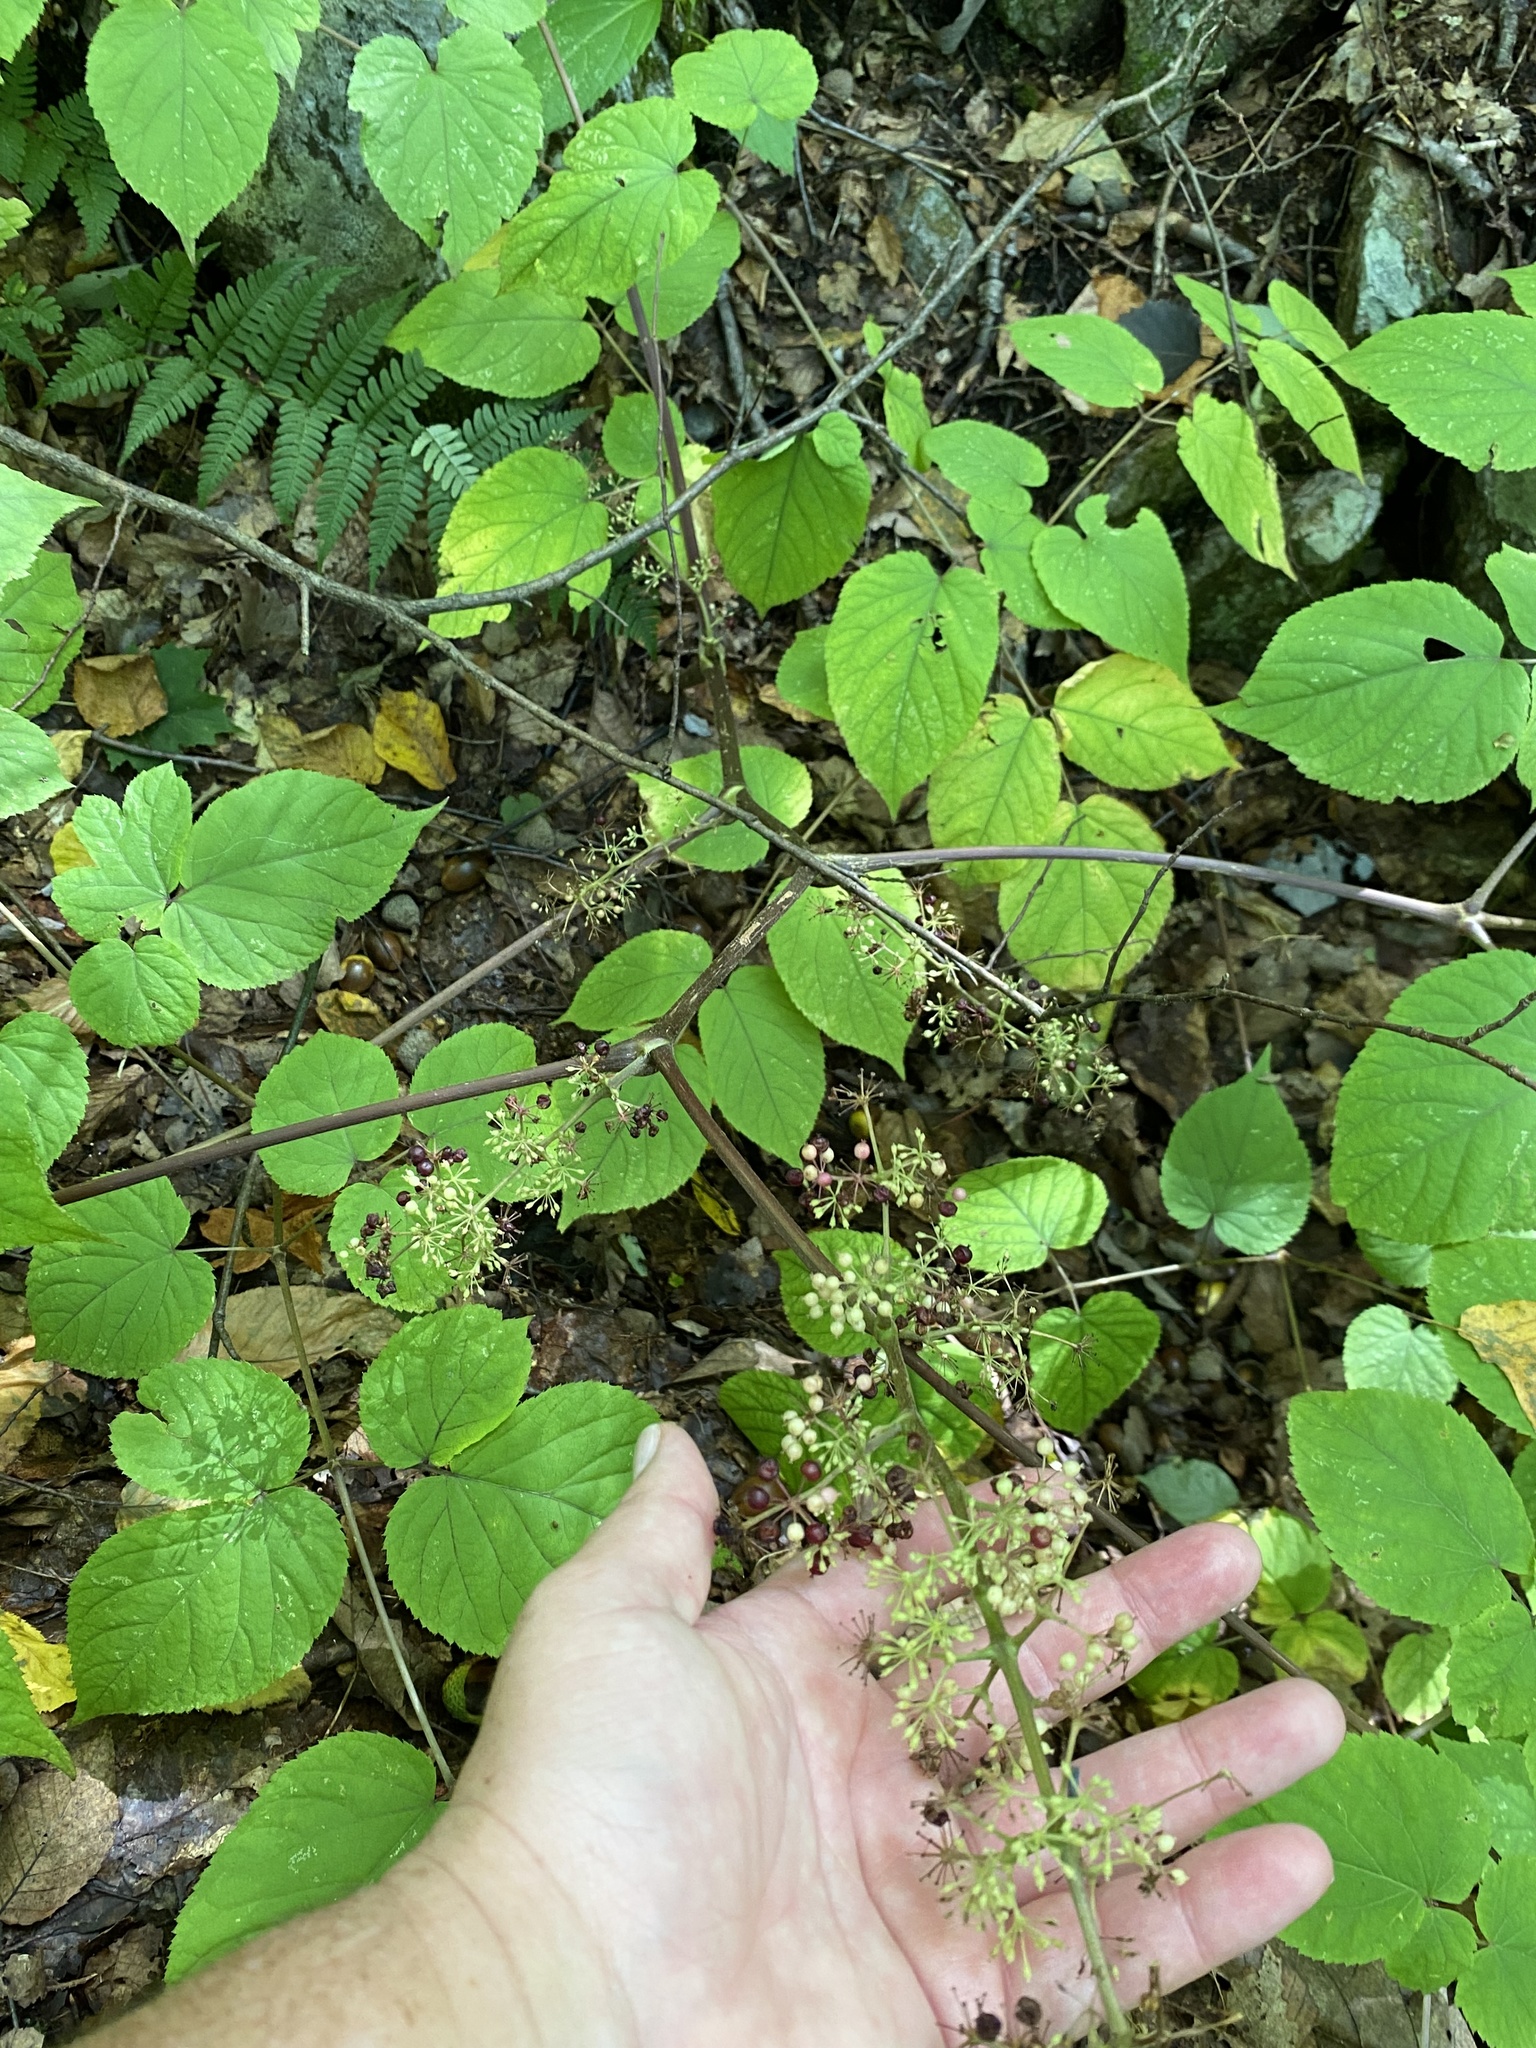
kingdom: Plantae
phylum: Tracheophyta
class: Magnoliopsida
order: Apiales
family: Araliaceae
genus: Aralia
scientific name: Aralia racemosa
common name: American-spikenard
